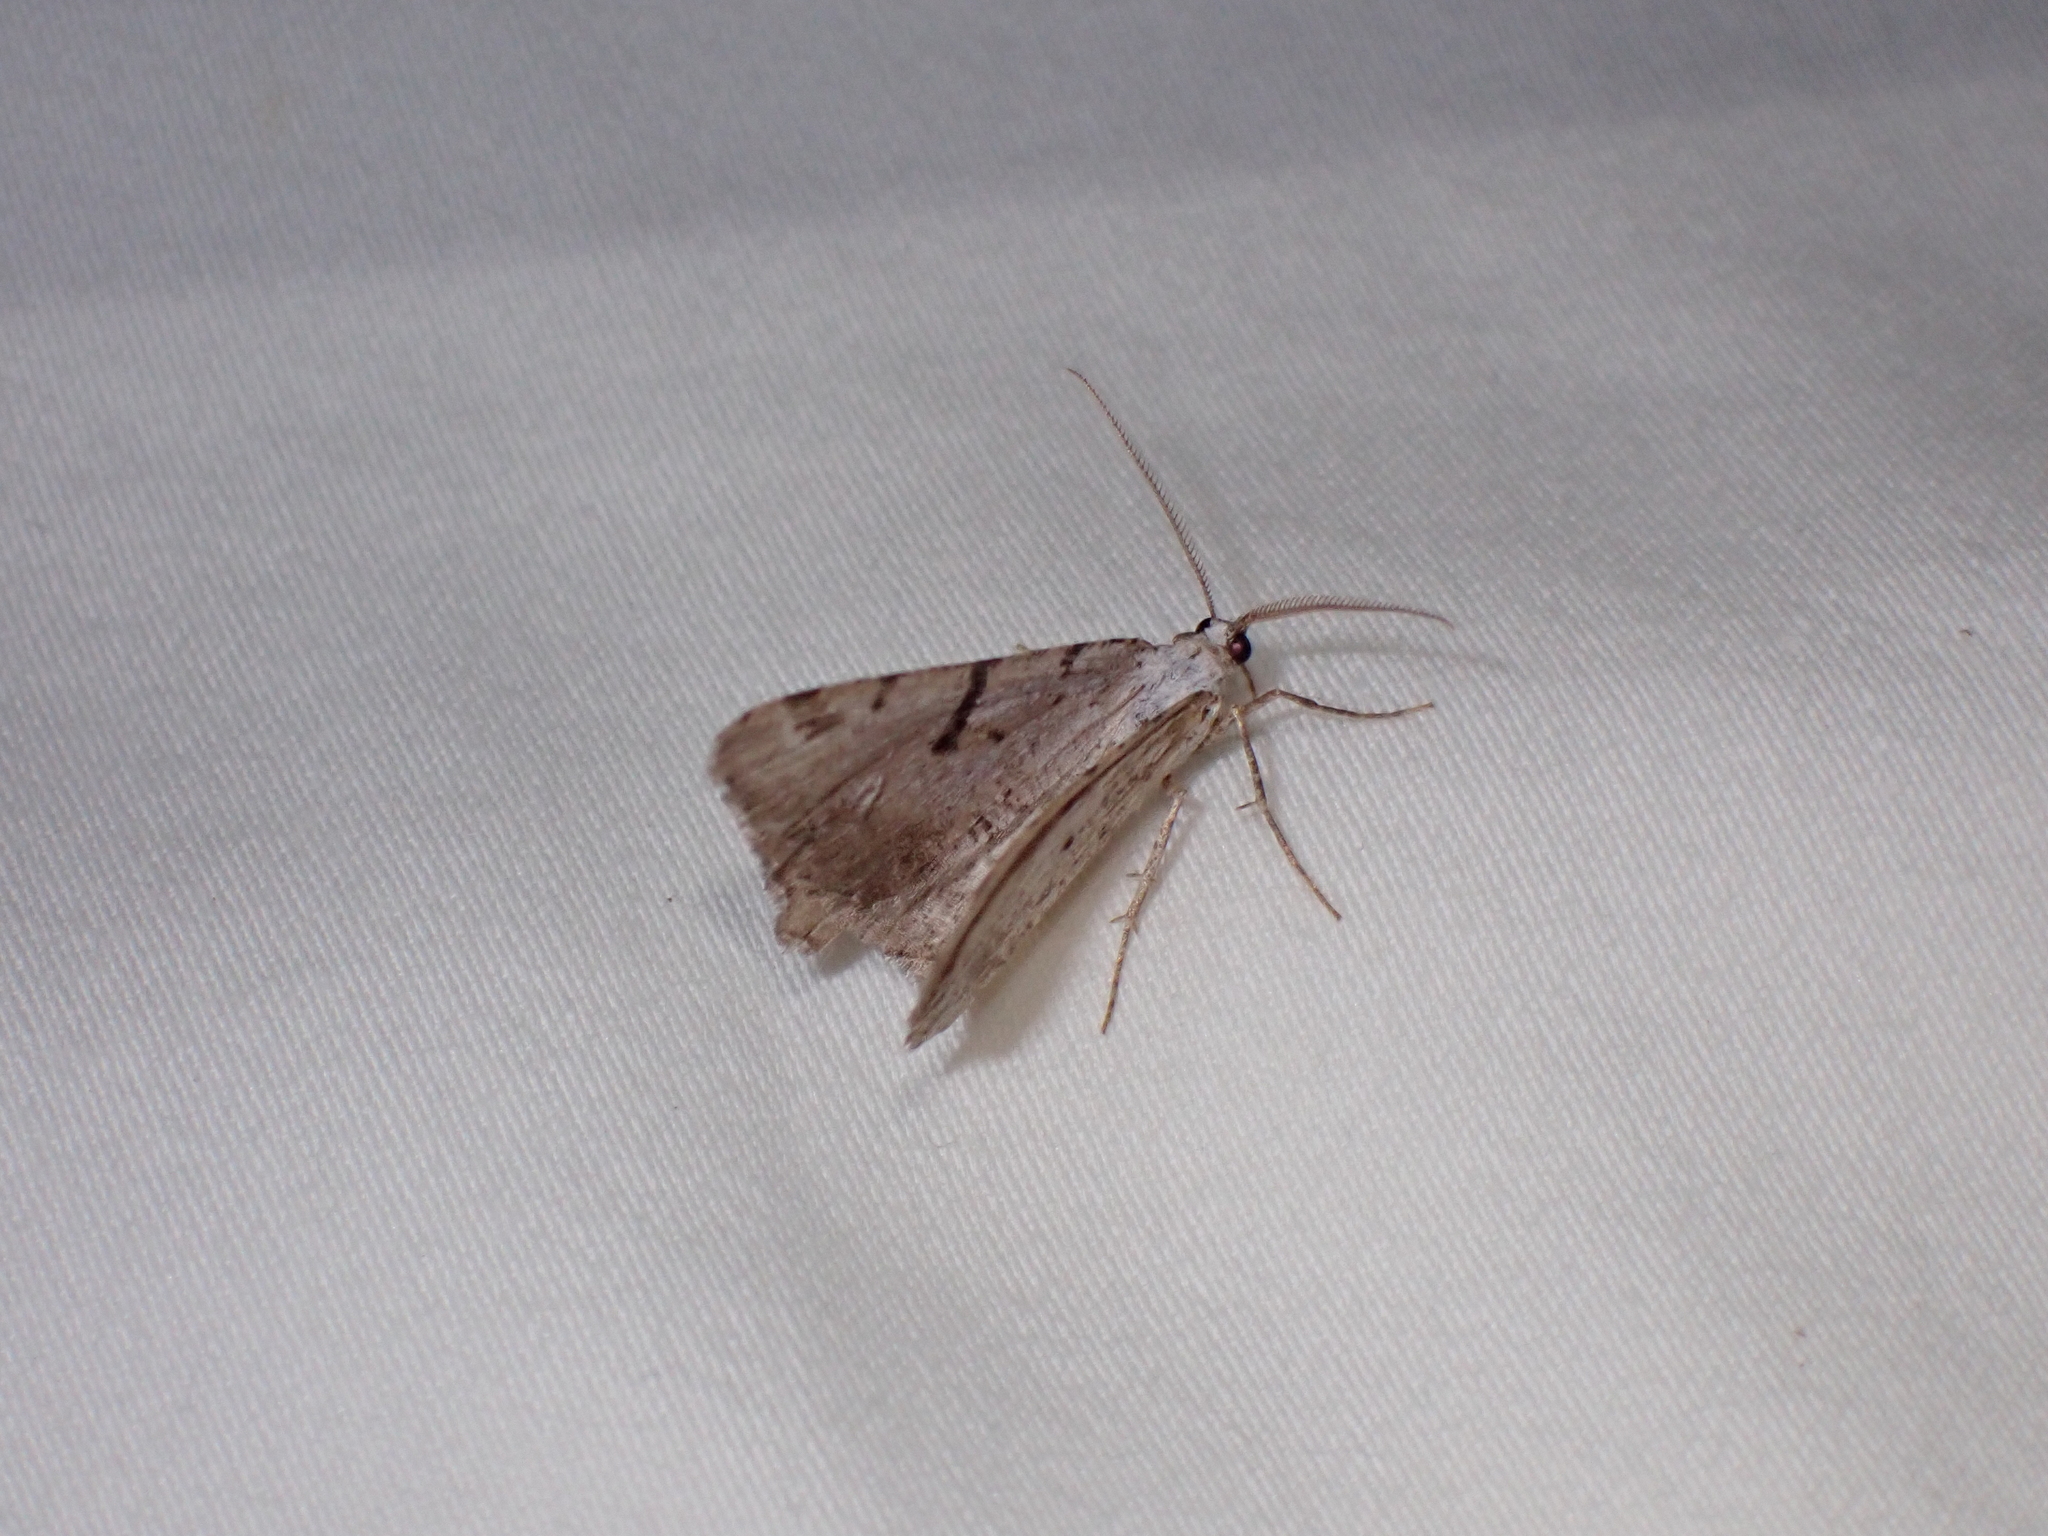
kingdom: Animalia
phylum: Arthropoda
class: Insecta
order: Lepidoptera
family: Geometridae
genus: Macaria
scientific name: Macaria wauaria
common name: V-moth
